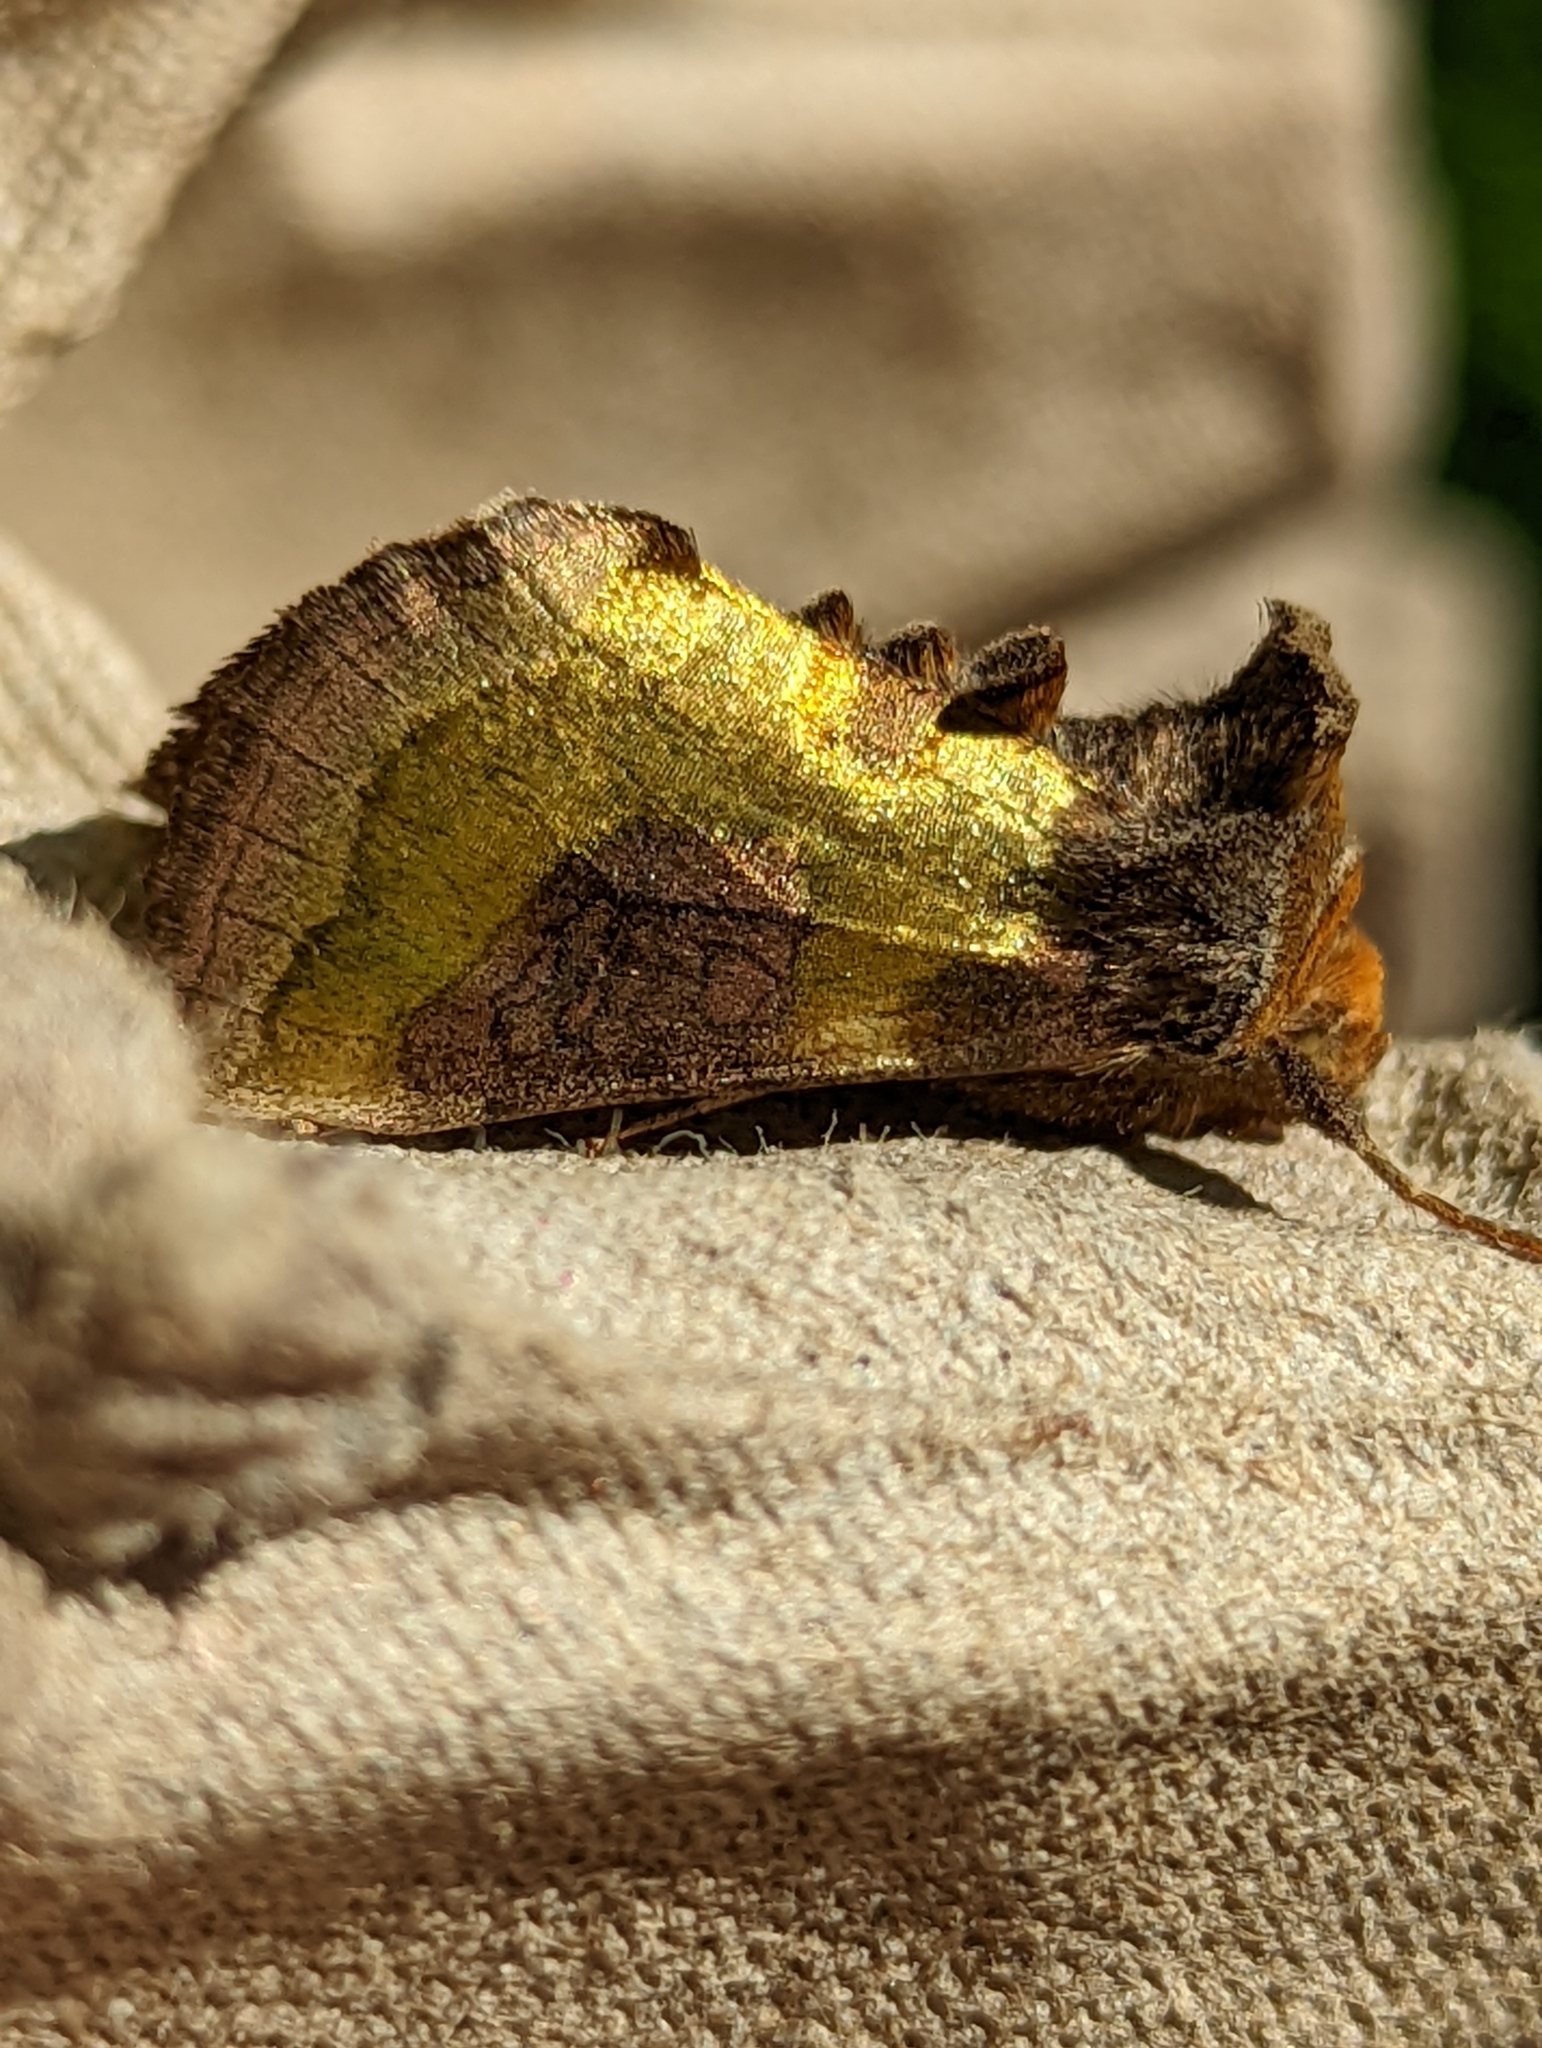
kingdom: Animalia
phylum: Arthropoda
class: Insecta
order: Lepidoptera
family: Noctuidae
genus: Diachrysia
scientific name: Diachrysia chrysitis
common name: Burnished brass
